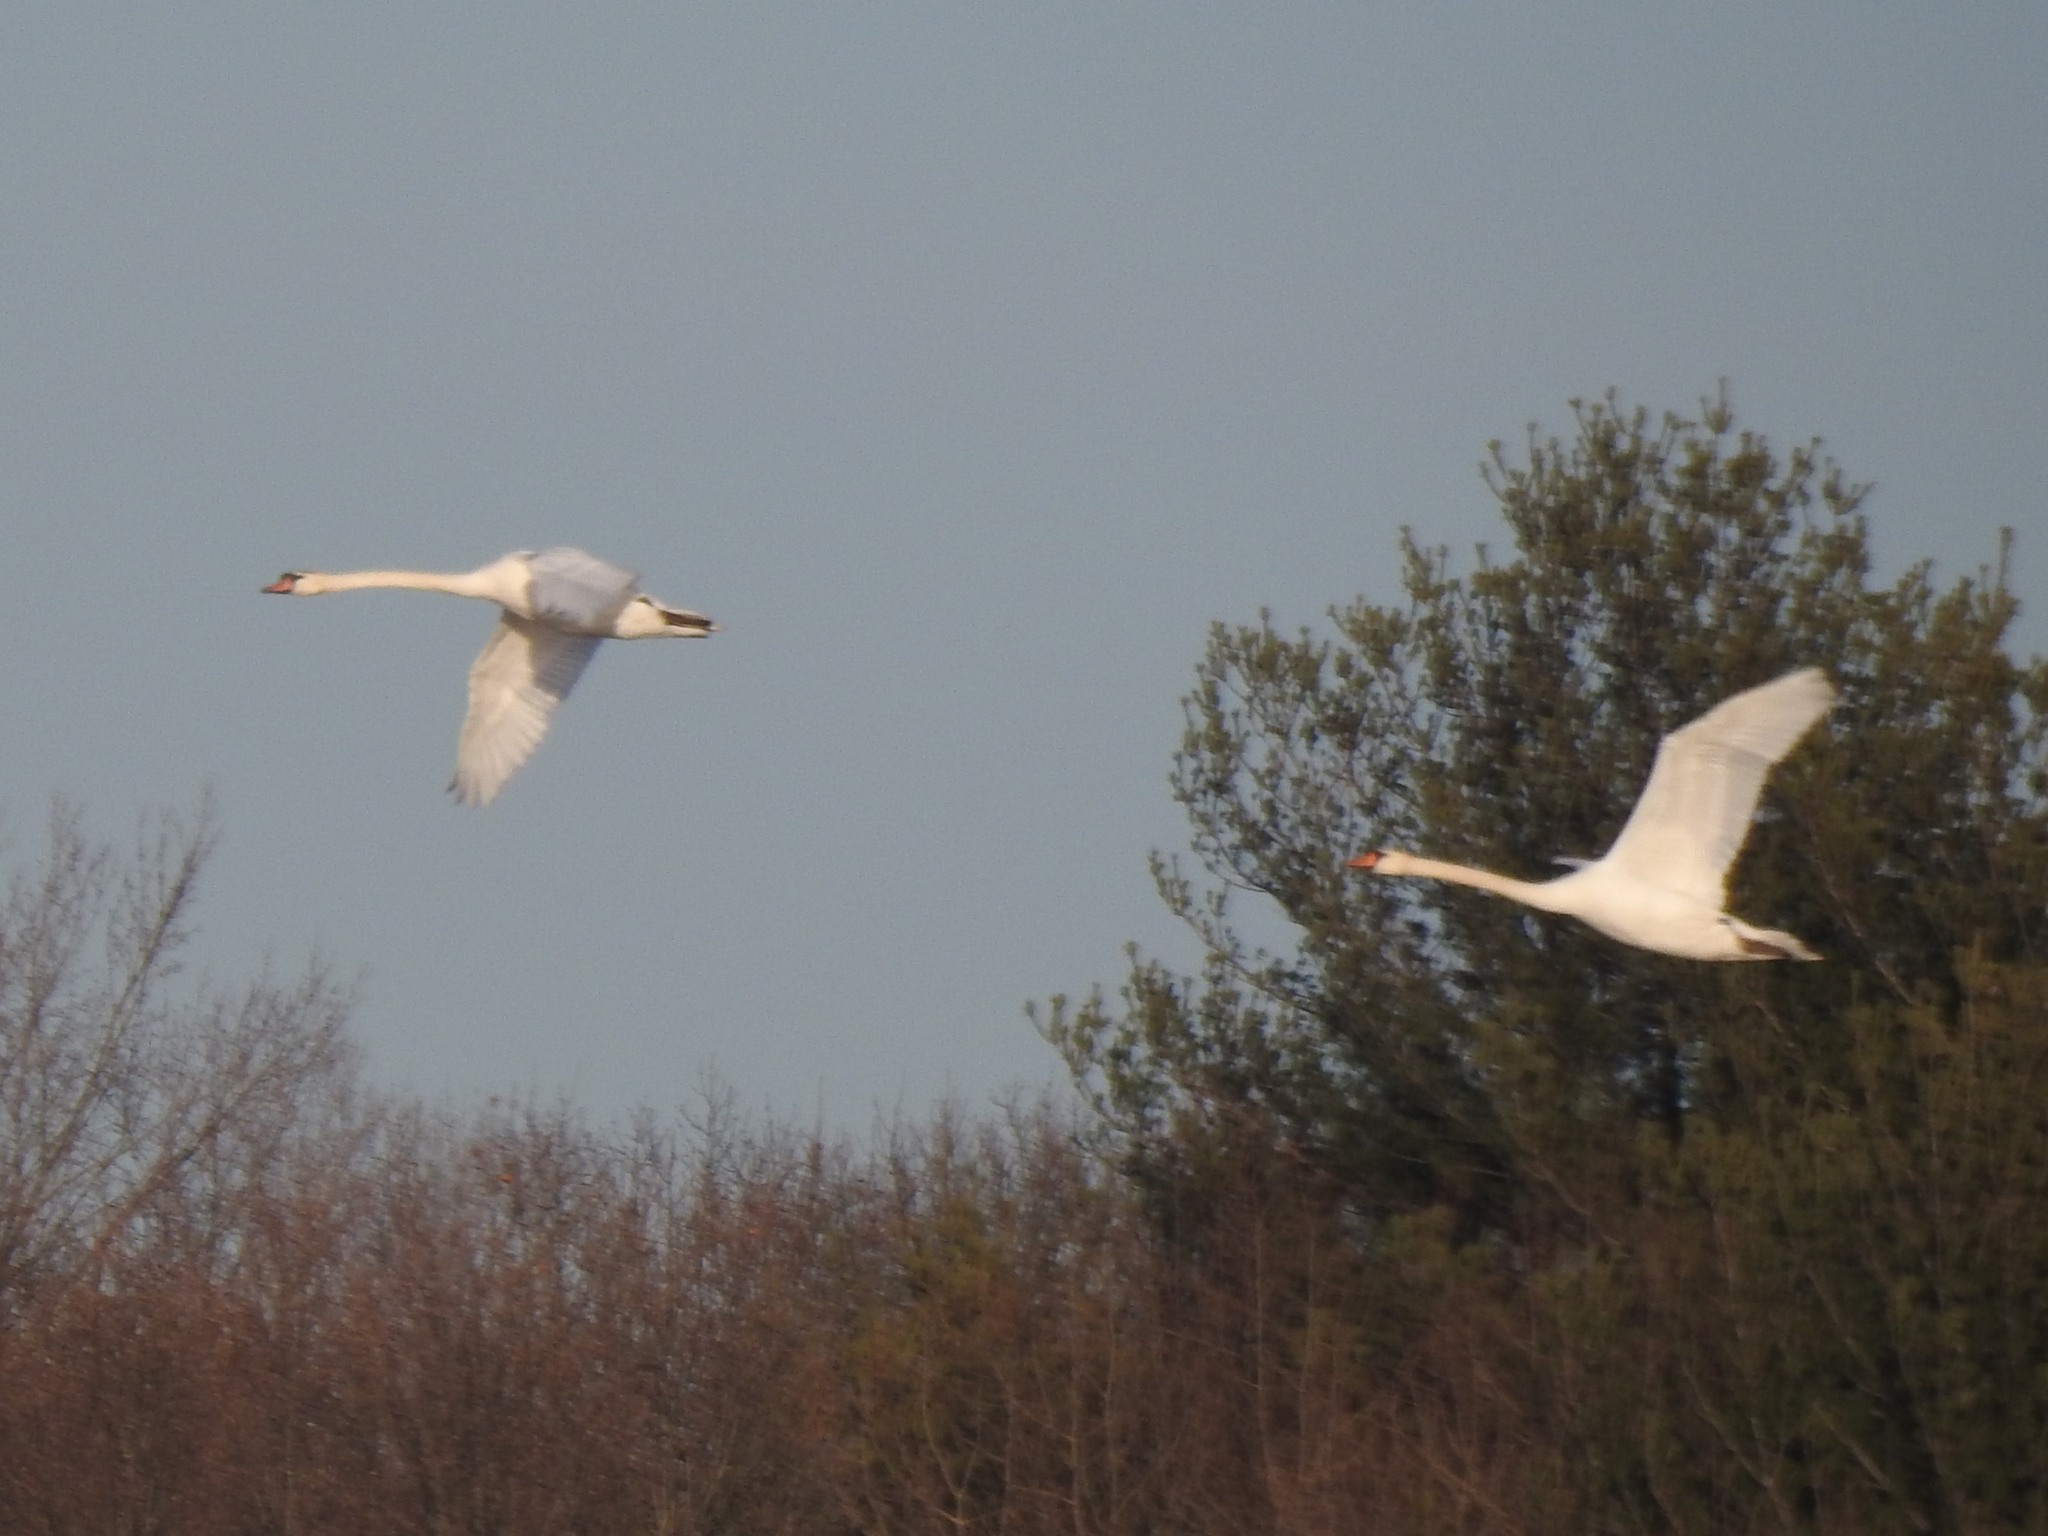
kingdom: Animalia
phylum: Chordata
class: Aves
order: Anseriformes
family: Anatidae
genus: Cygnus
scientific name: Cygnus olor
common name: Mute swan
